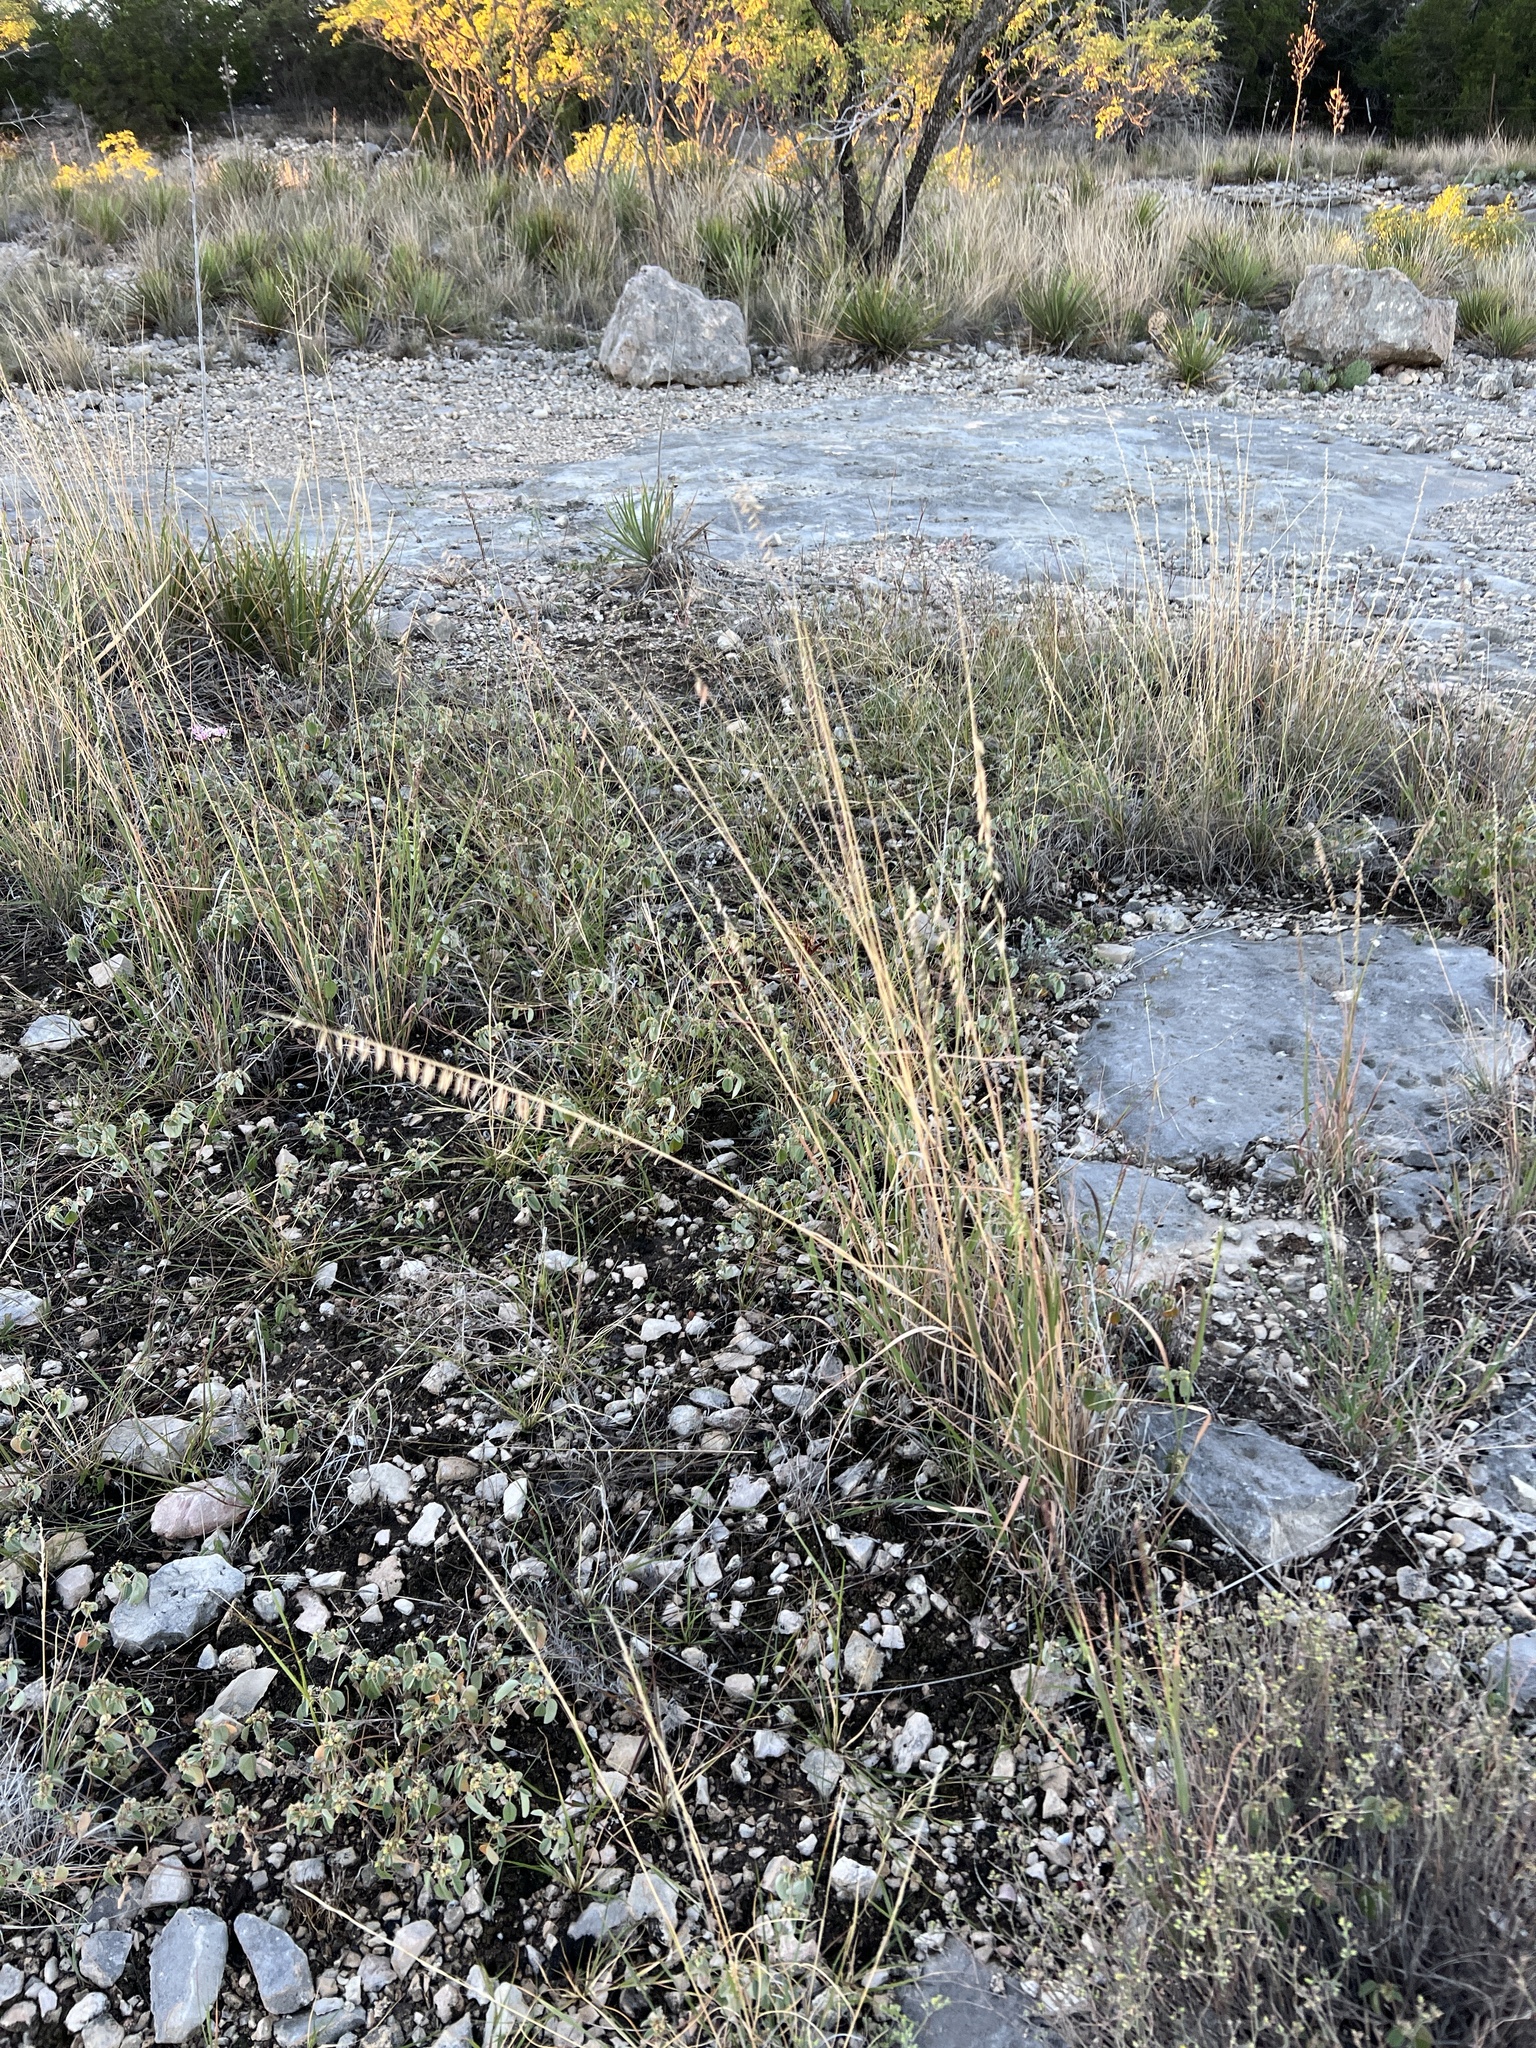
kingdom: Plantae
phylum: Tracheophyta
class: Liliopsida
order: Poales
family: Poaceae
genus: Bouteloua
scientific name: Bouteloua curtipendula
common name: Side-oats grama
